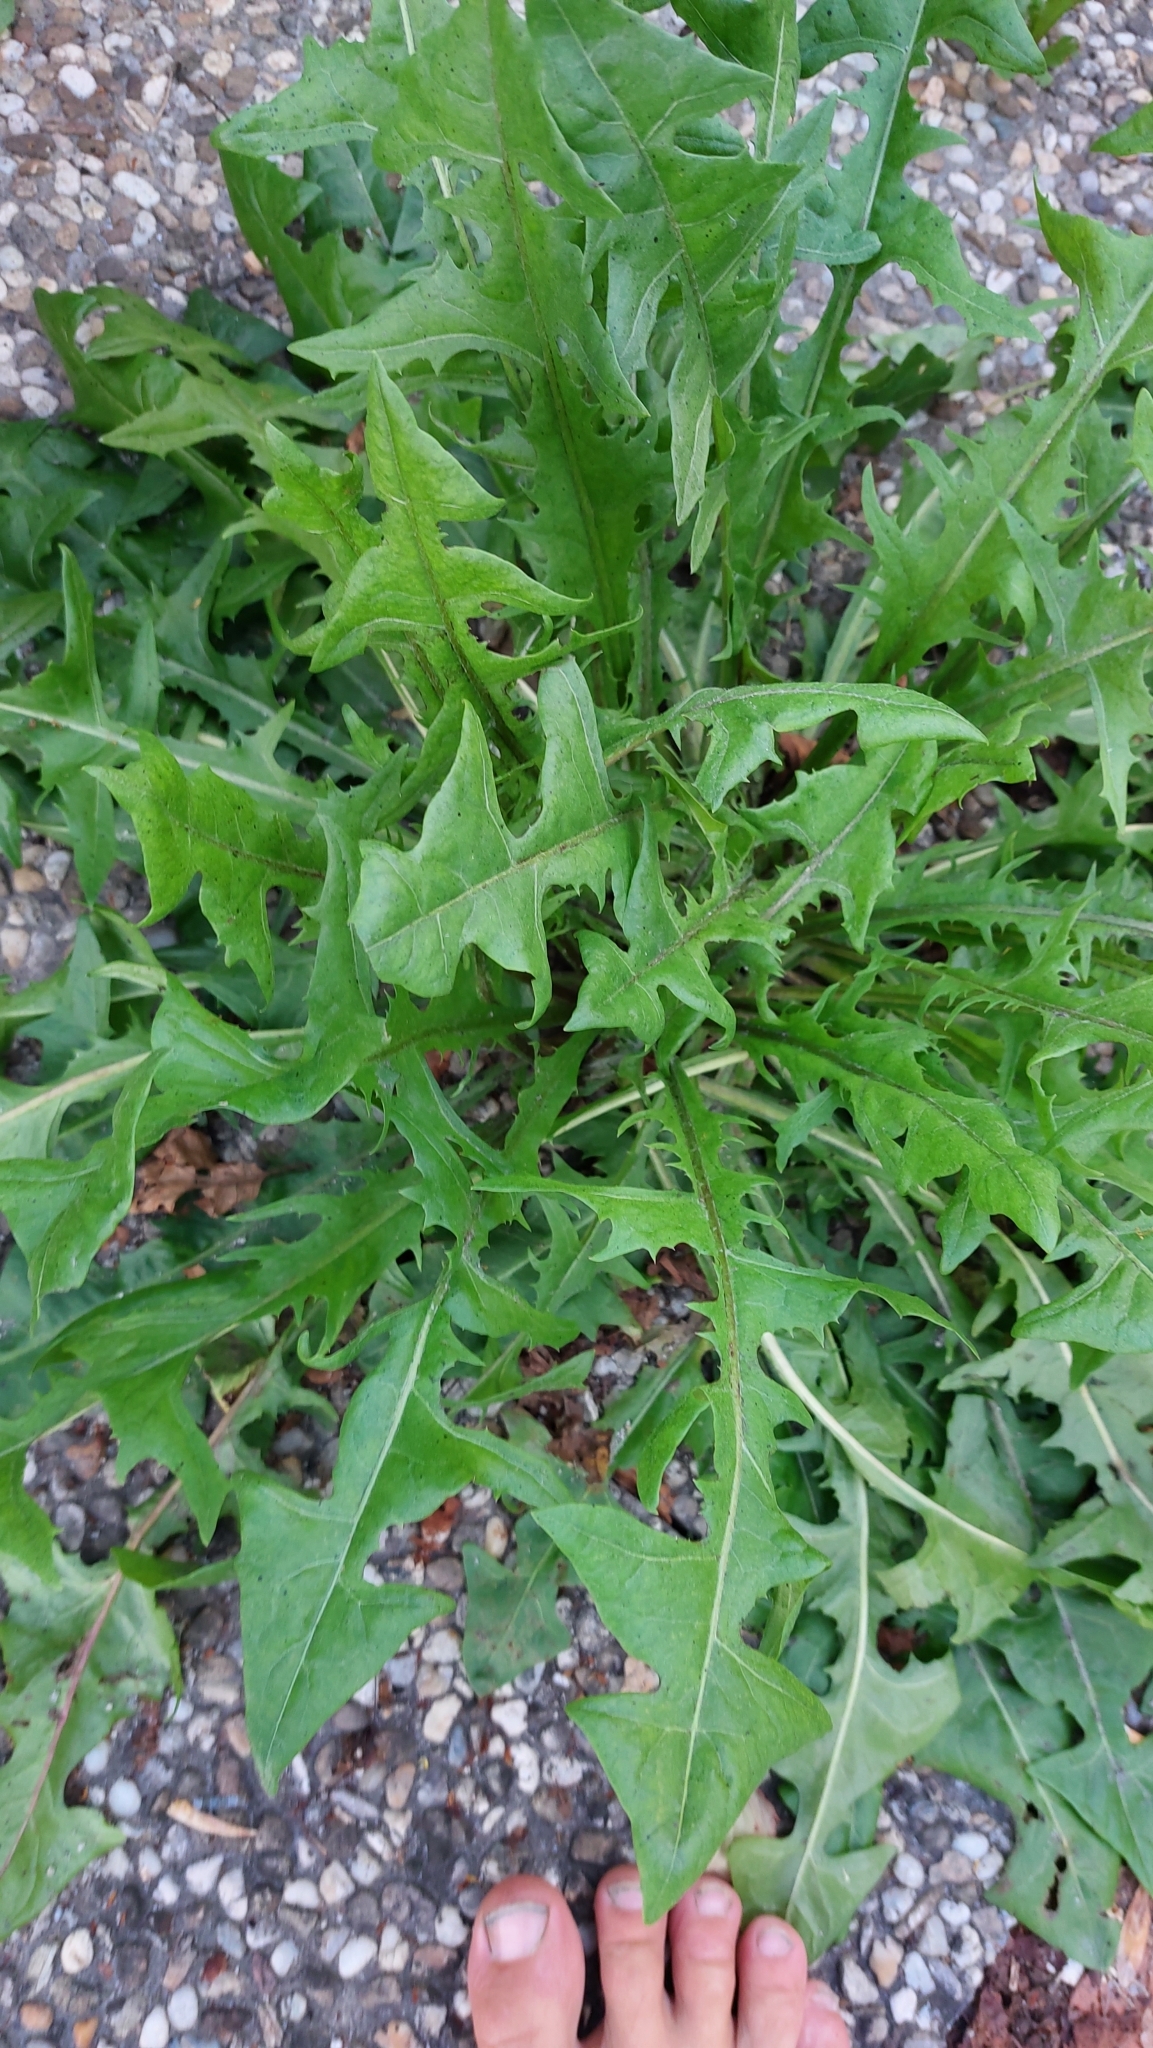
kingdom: Plantae
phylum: Tracheophyta
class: Magnoliopsida
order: Asterales
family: Asteraceae
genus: Taraxacum
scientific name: Taraxacum
